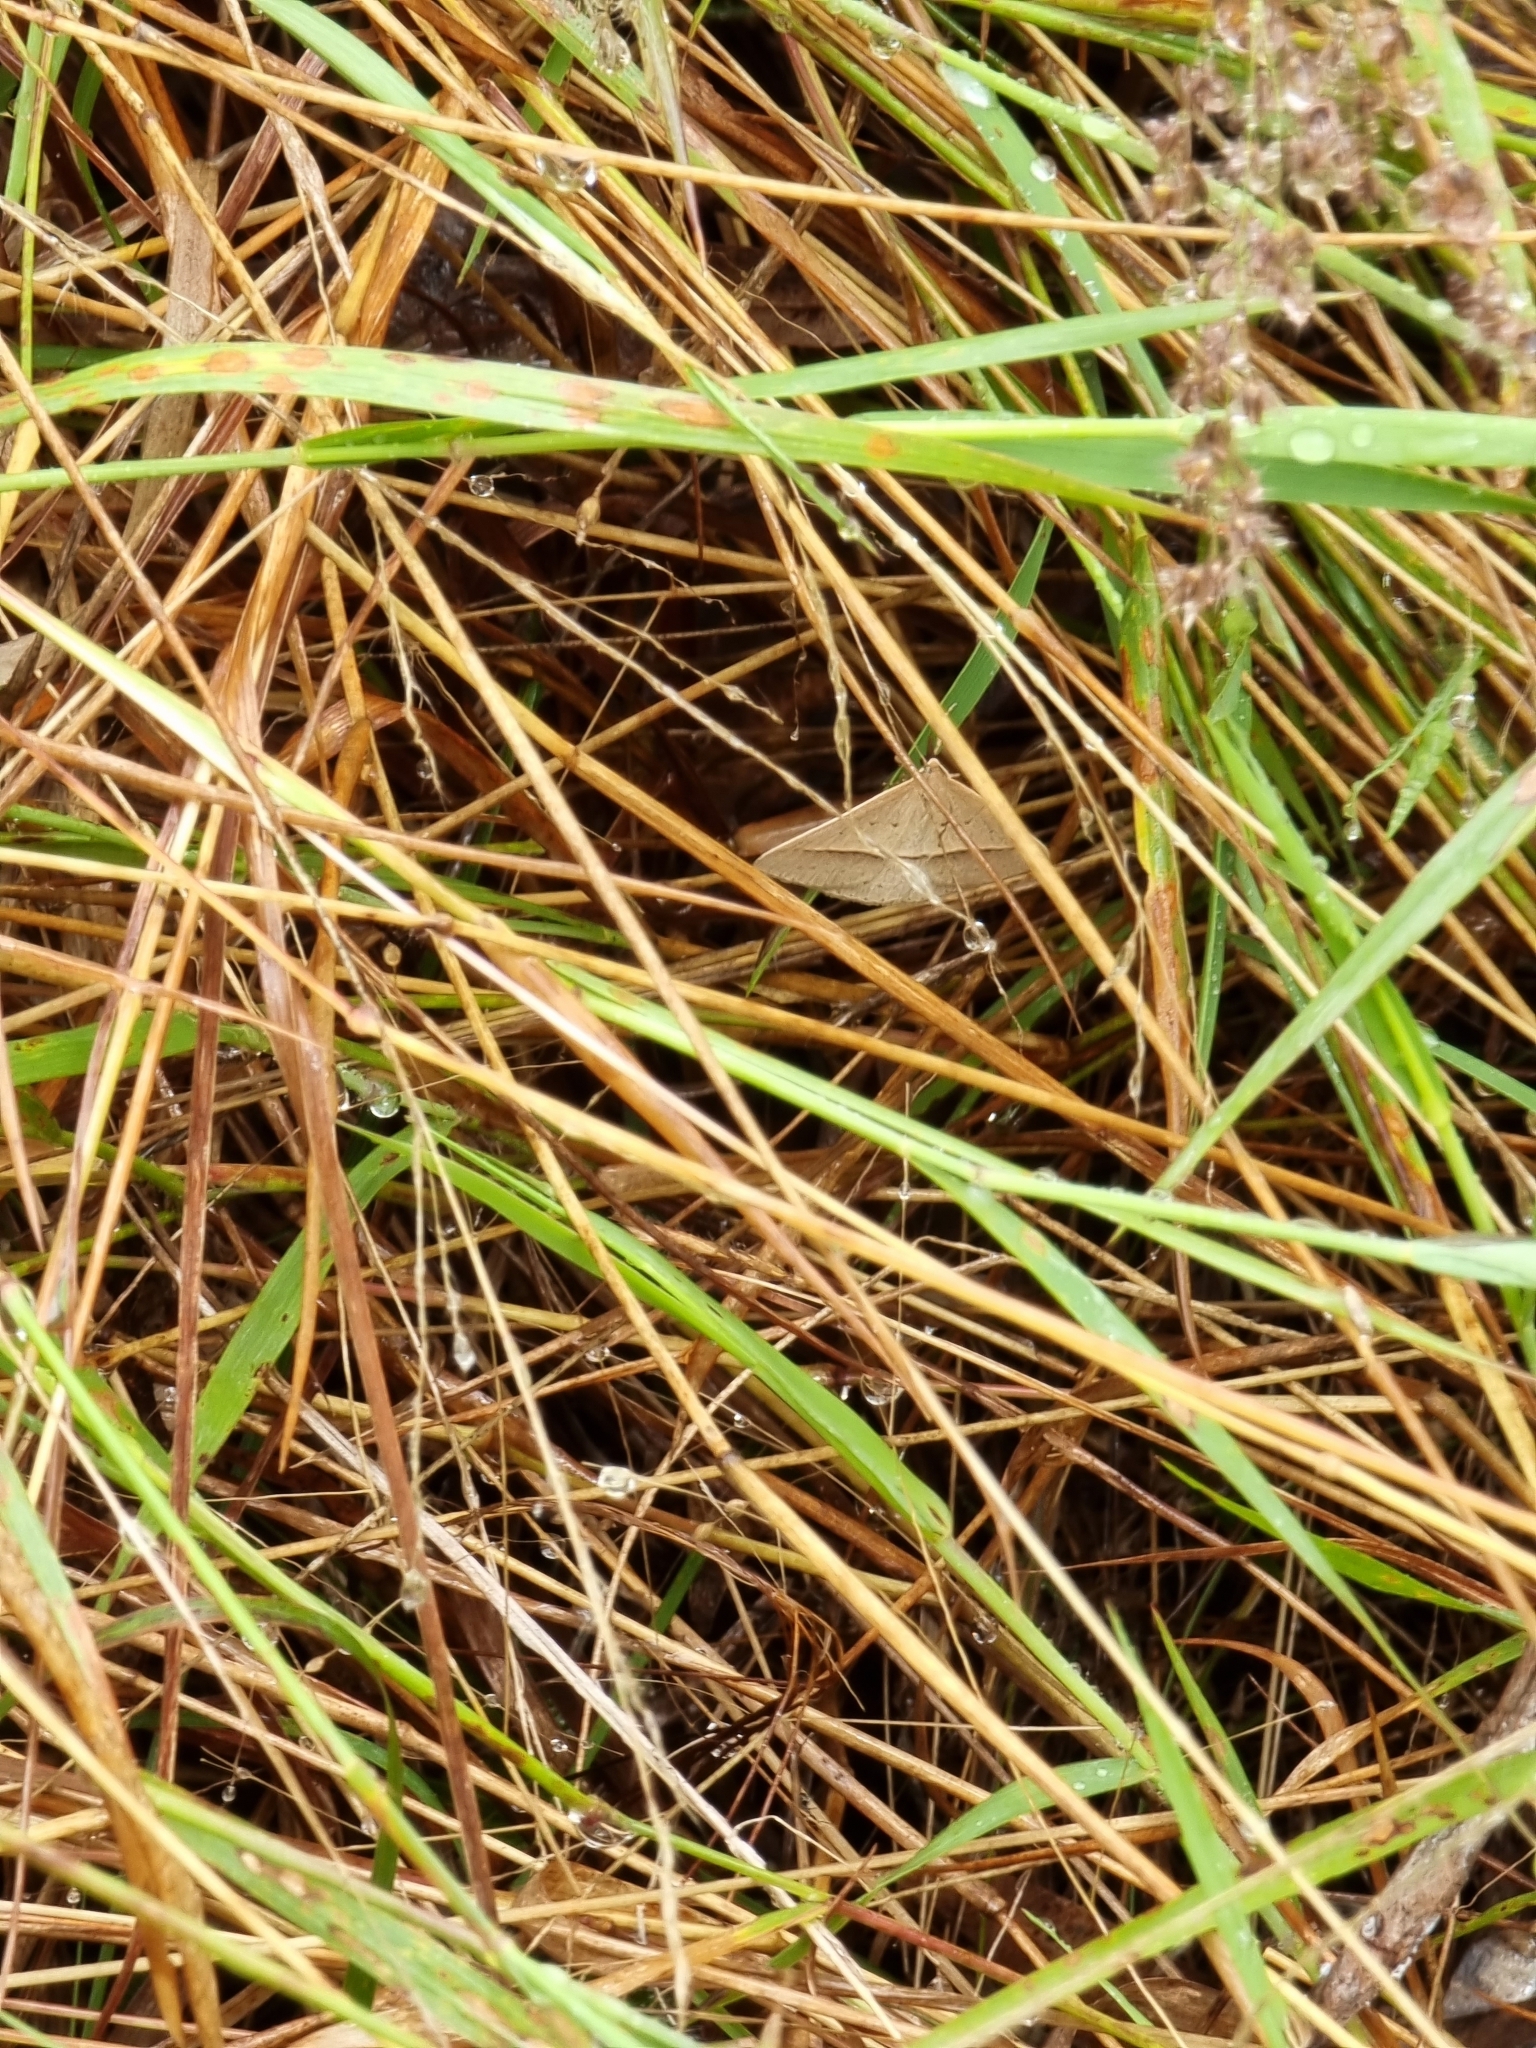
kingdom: Animalia
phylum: Arthropoda
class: Insecta
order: Lepidoptera
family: Geometridae
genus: Epidesmia
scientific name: Epidesmia tryxaria
